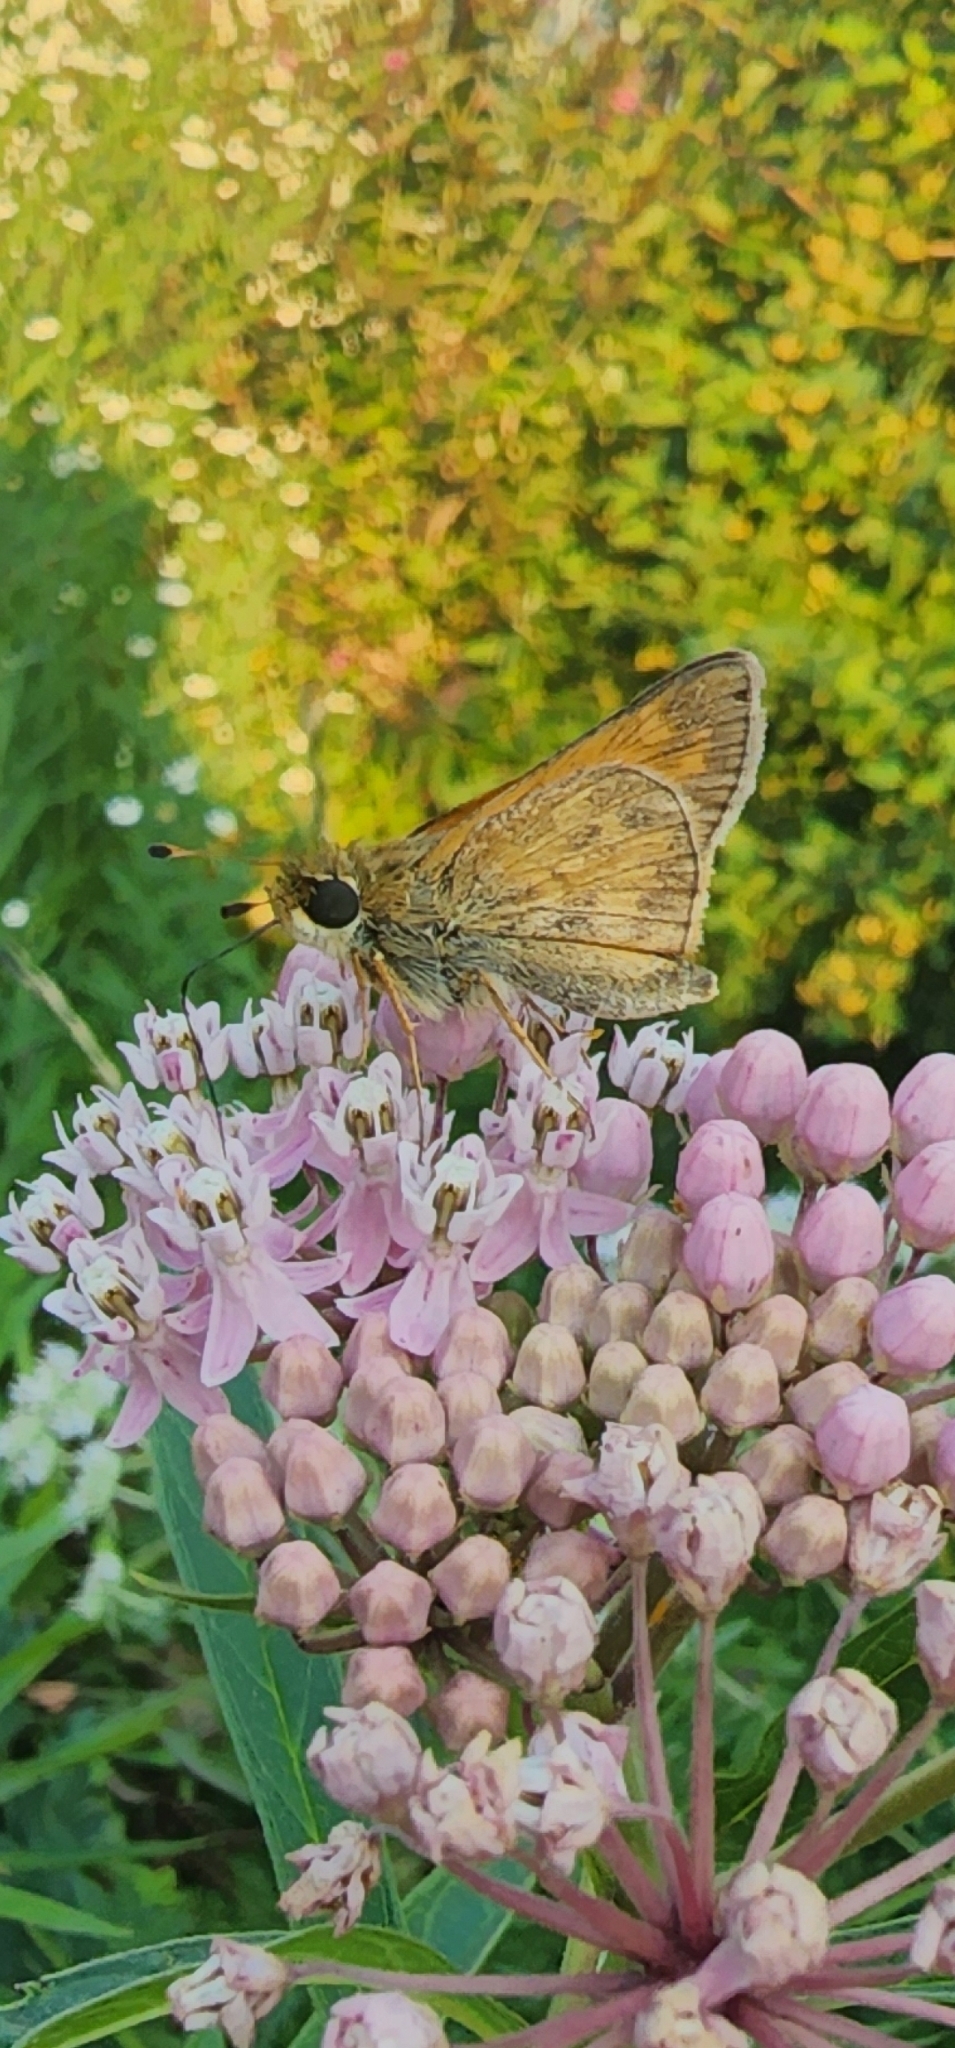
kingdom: Animalia
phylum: Arthropoda
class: Insecta
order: Lepidoptera
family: Hesperiidae
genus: Atalopedes
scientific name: Atalopedes
